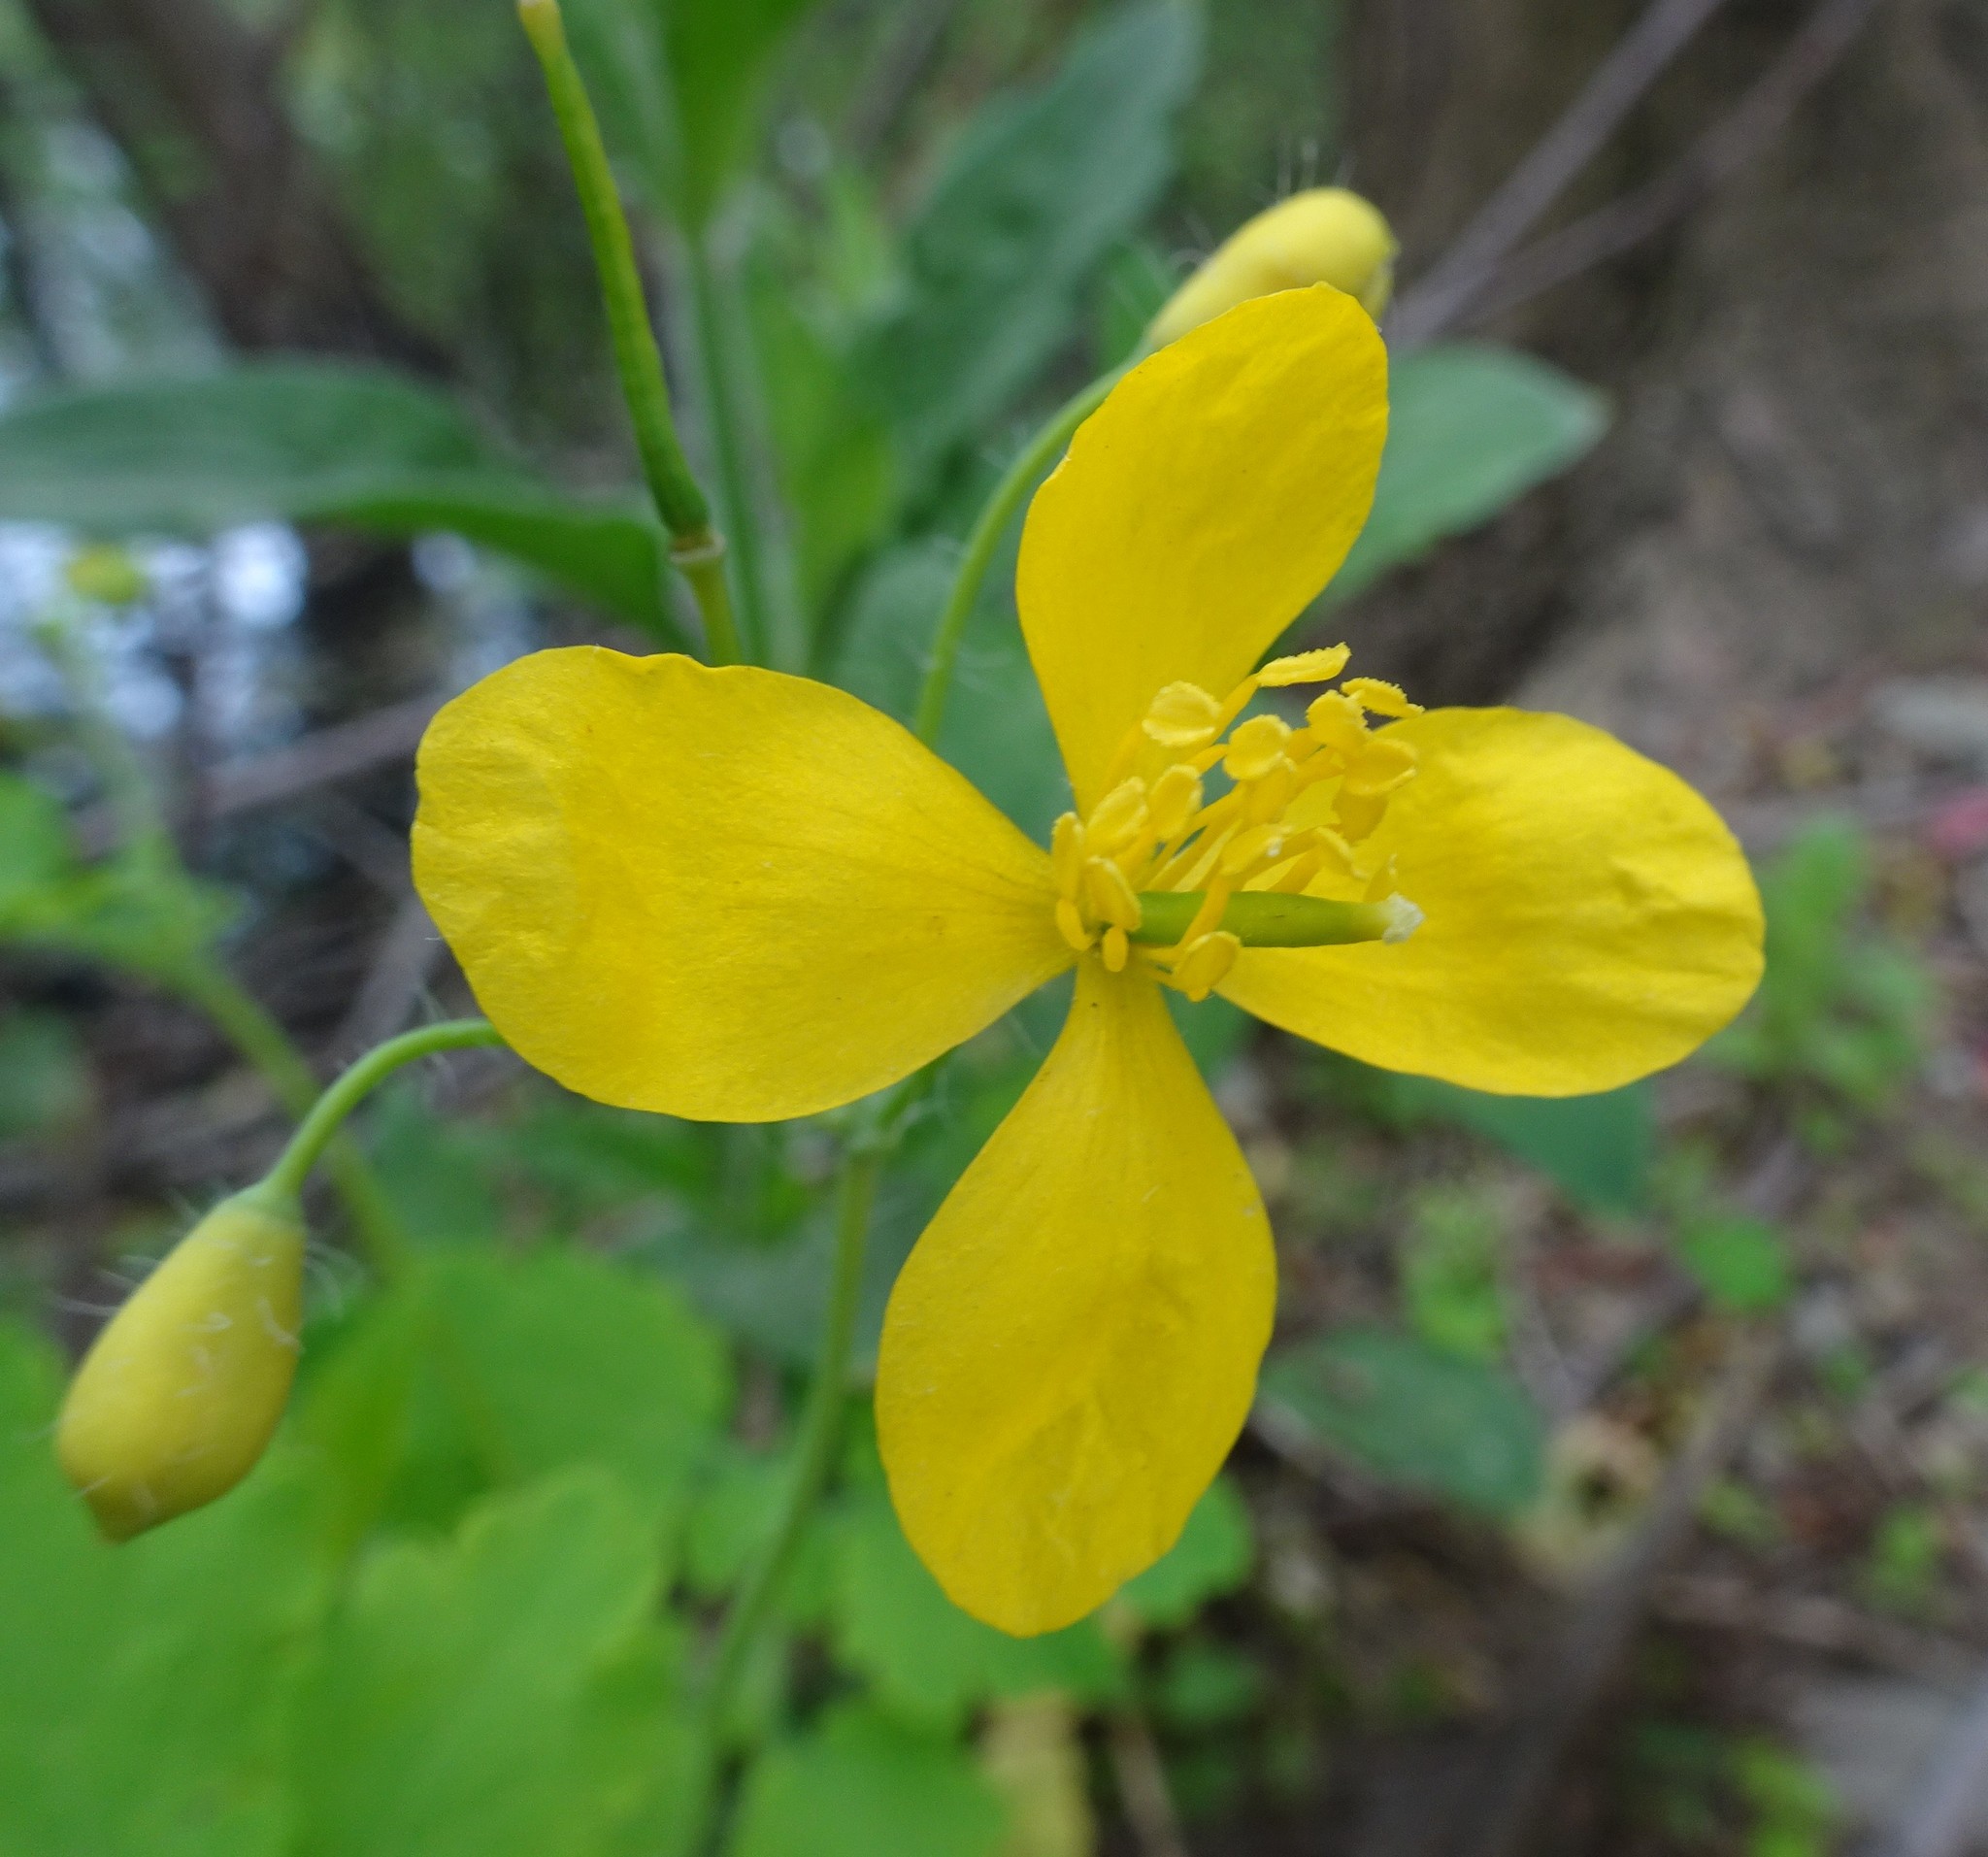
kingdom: Plantae
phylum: Tracheophyta
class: Magnoliopsida
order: Ranunculales
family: Papaveraceae
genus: Chelidonium
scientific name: Chelidonium majus
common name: Greater celandine
